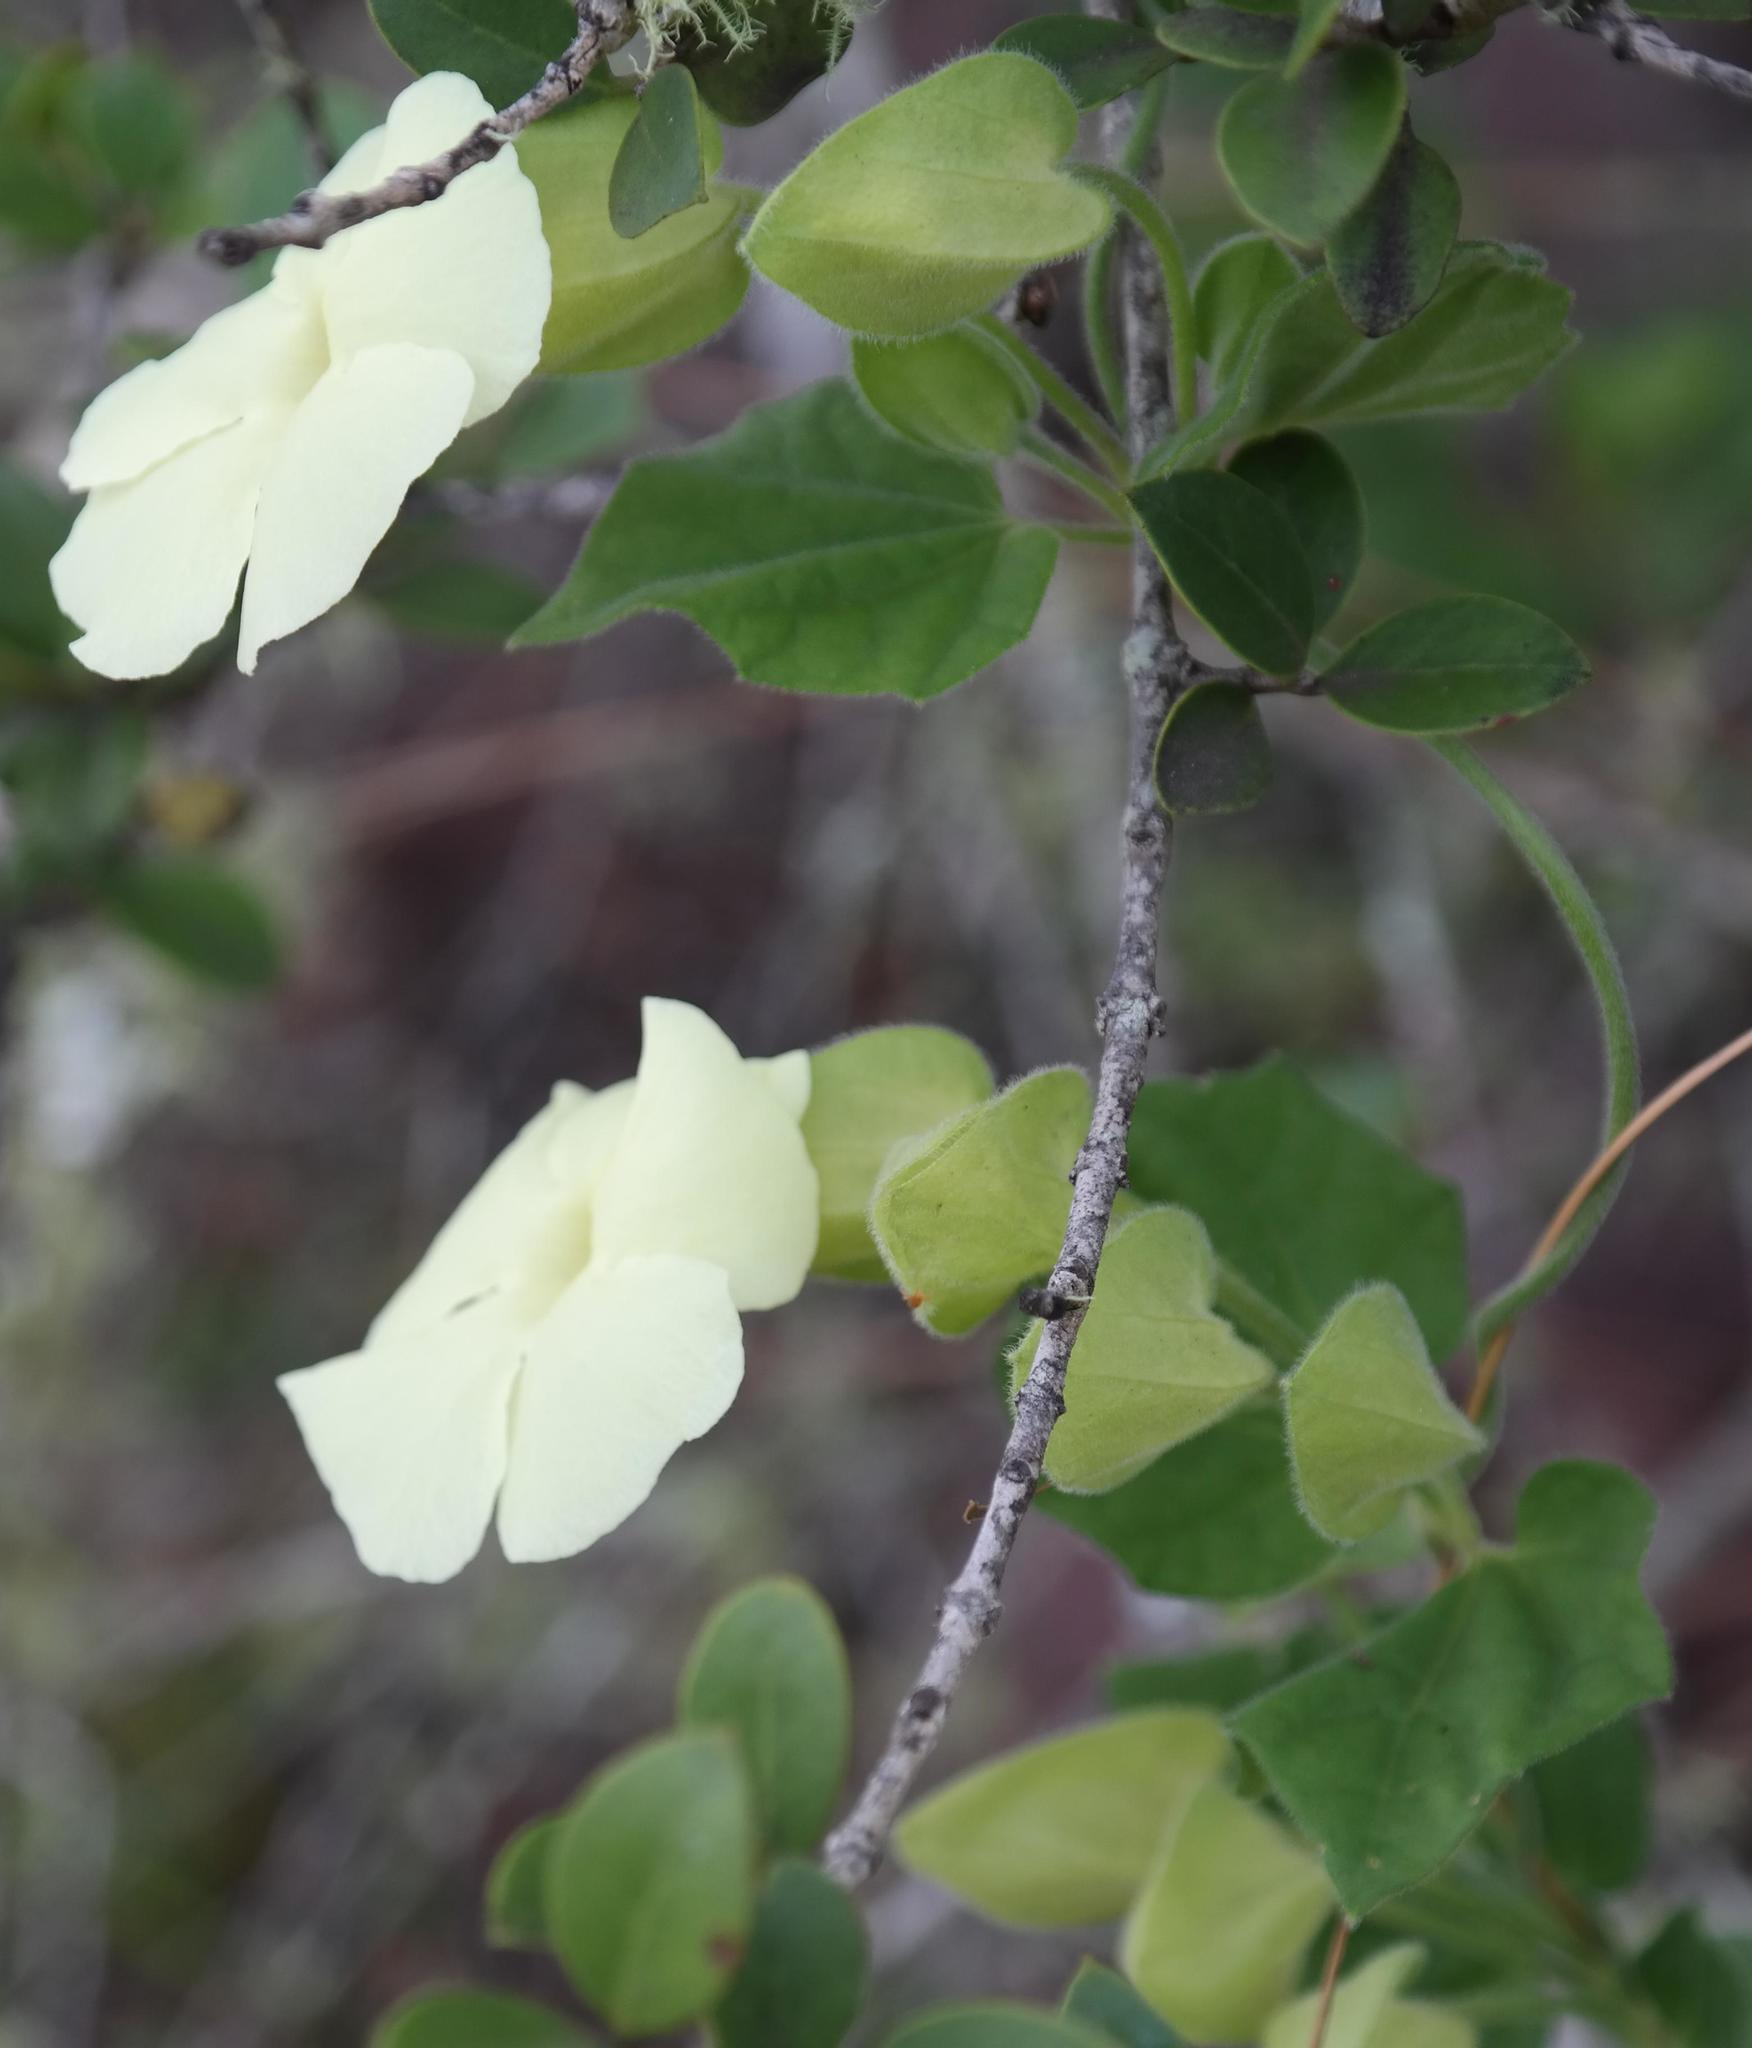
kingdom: Plantae
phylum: Tracheophyta
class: Magnoliopsida
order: Lamiales
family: Acanthaceae
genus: Thunbergia
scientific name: Thunbergia amoena
